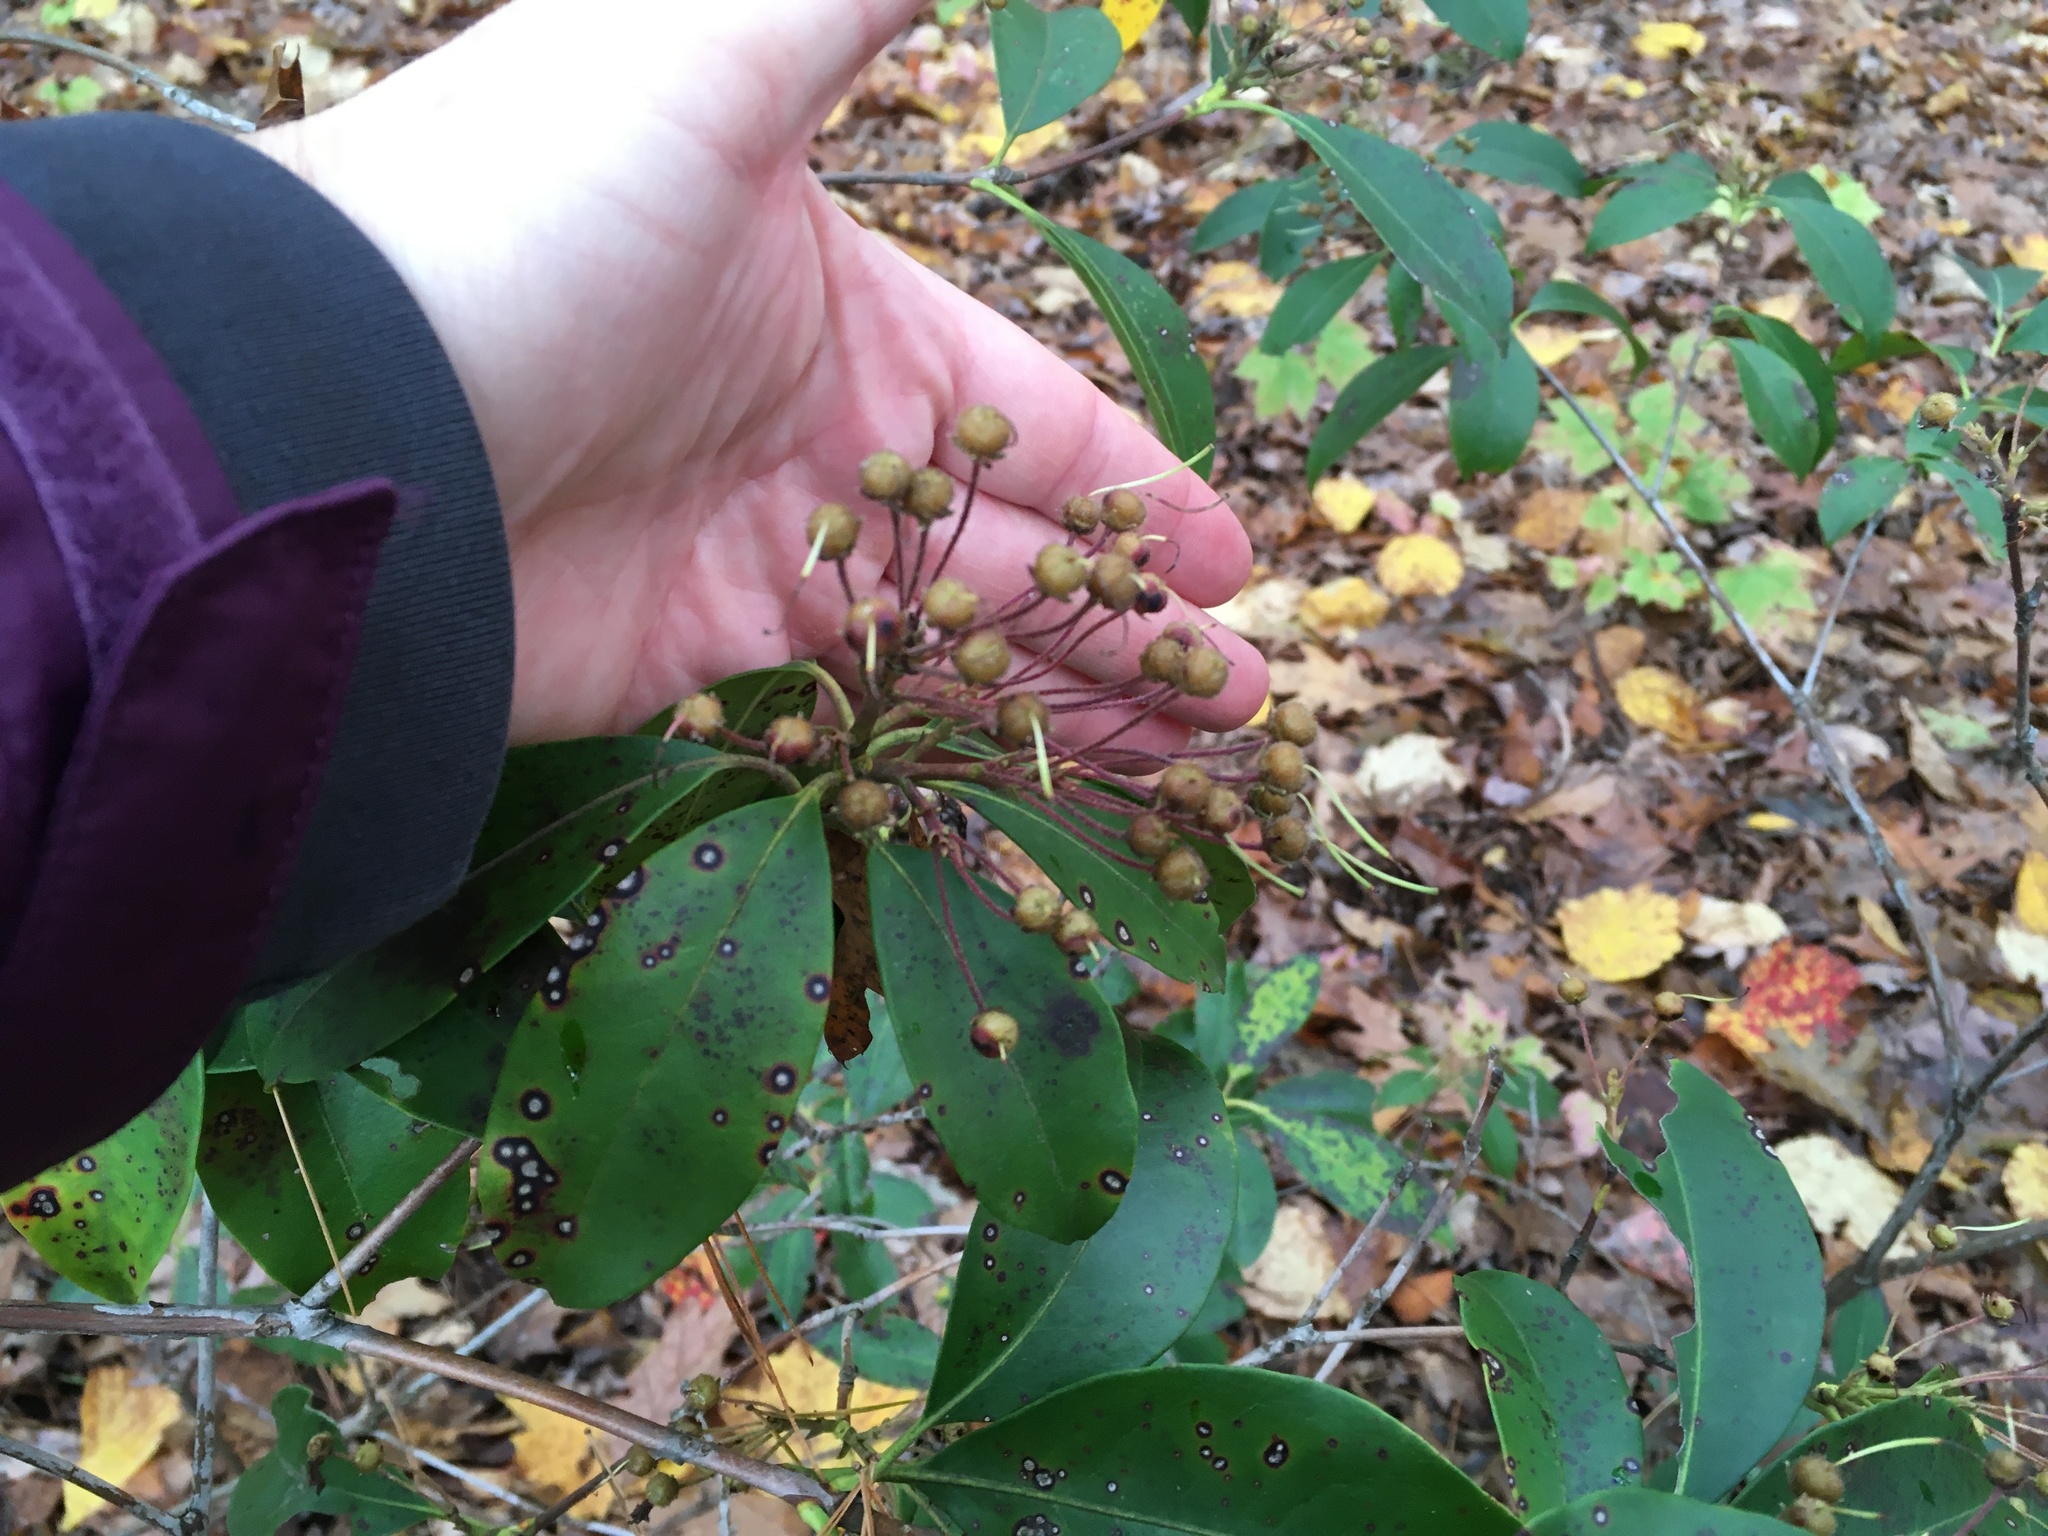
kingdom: Plantae
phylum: Tracheophyta
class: Magnoliopsida
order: Ericales
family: Ericaceae
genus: Kalmia
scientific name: Kalmia latifolia
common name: Mountain-laurel
